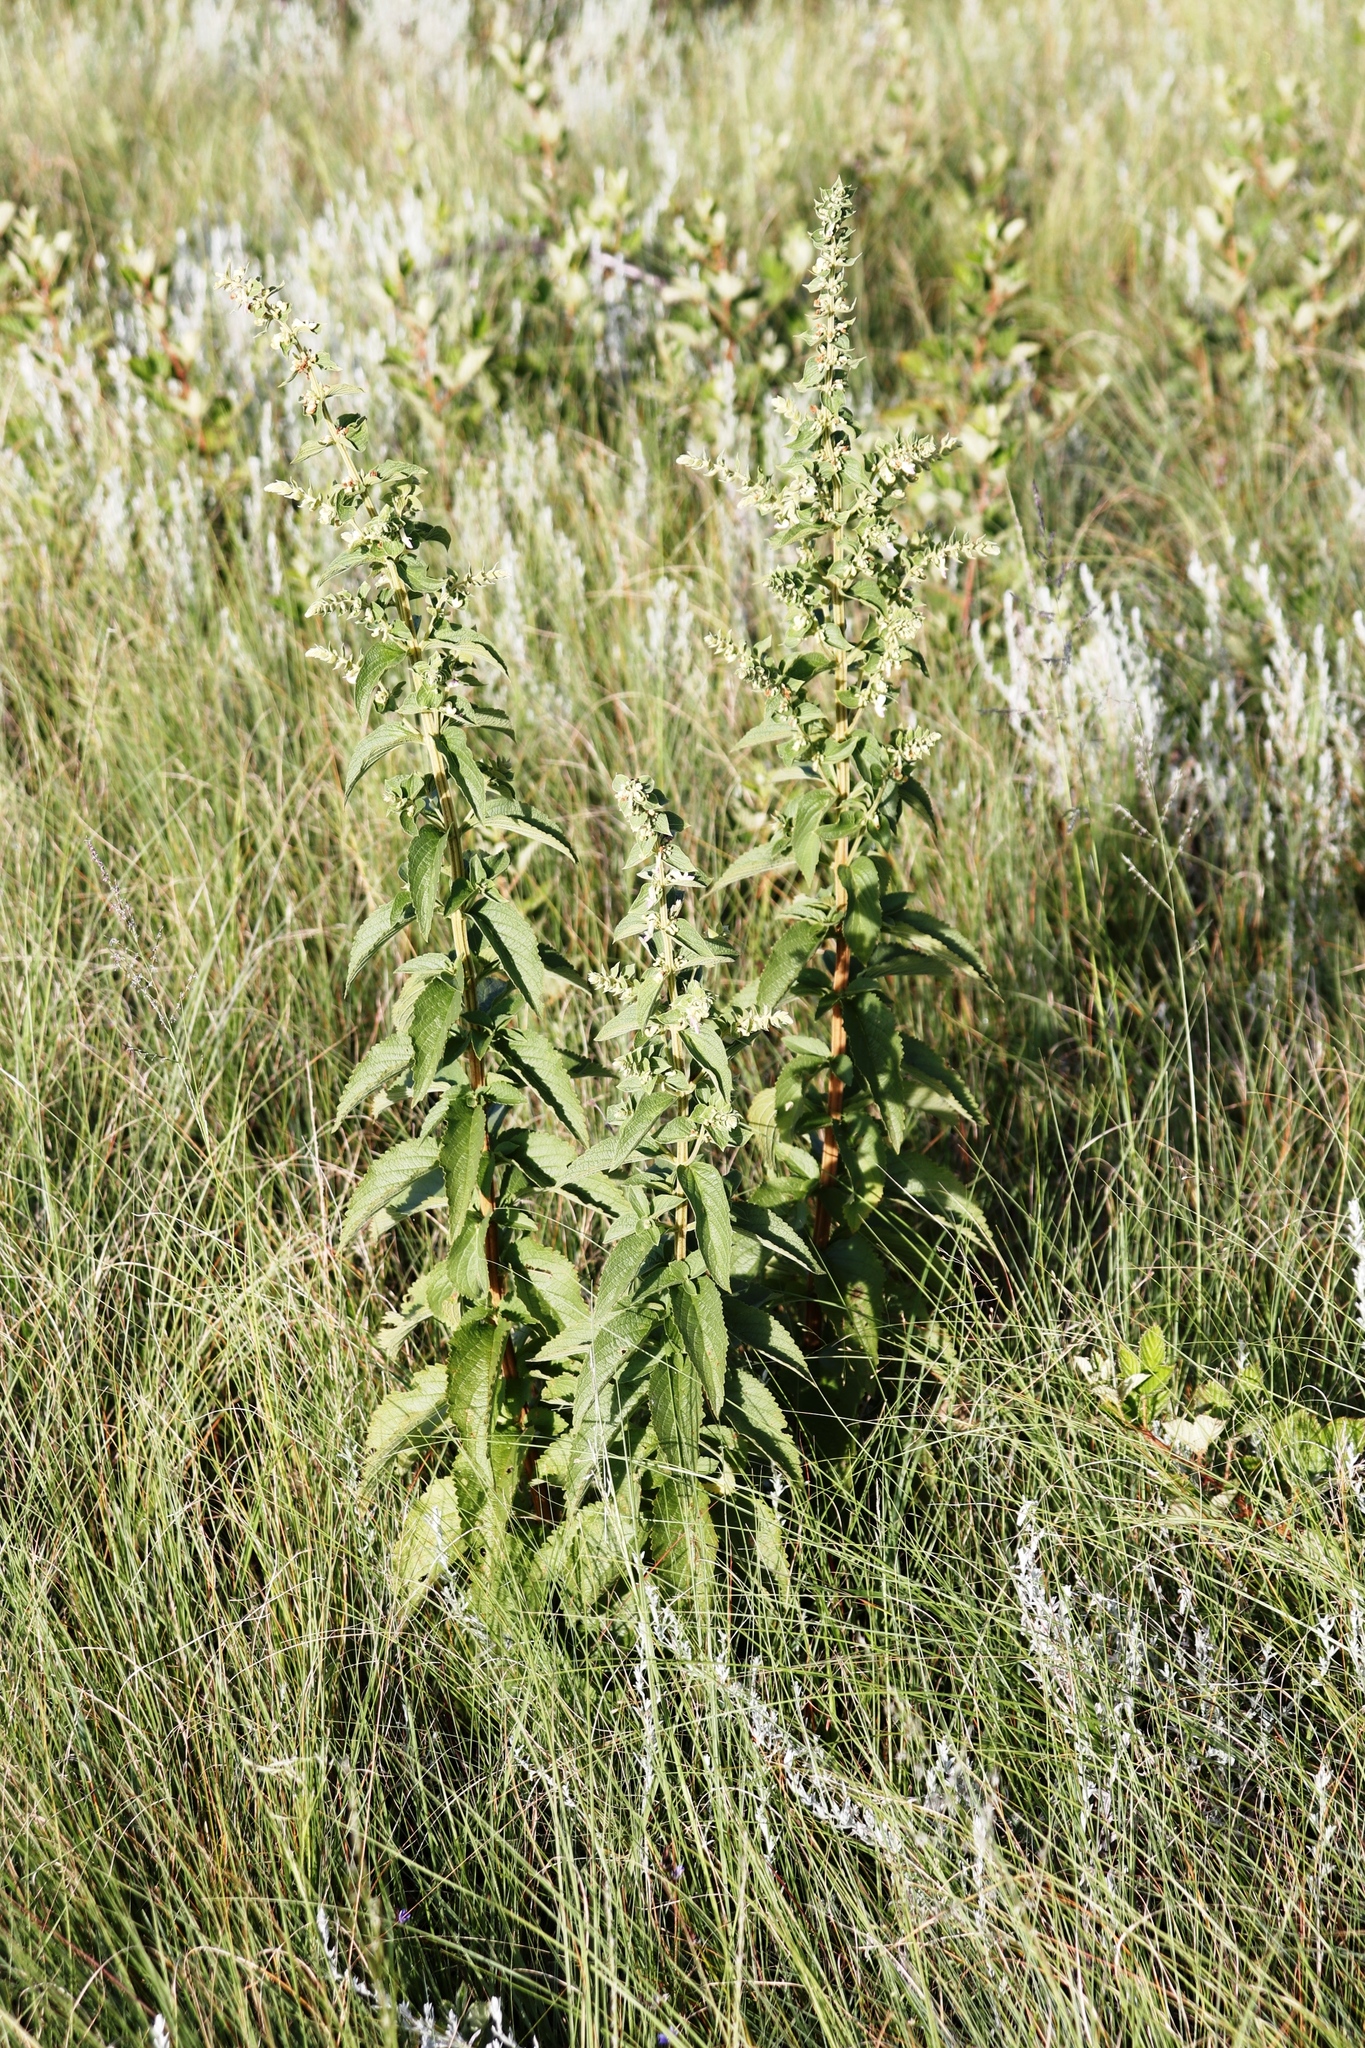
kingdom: Plantae
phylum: Tracheophyta
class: Magnoliopsida
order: Lamiales
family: Lamiaceae
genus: Coleus
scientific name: Coleus calycinus
